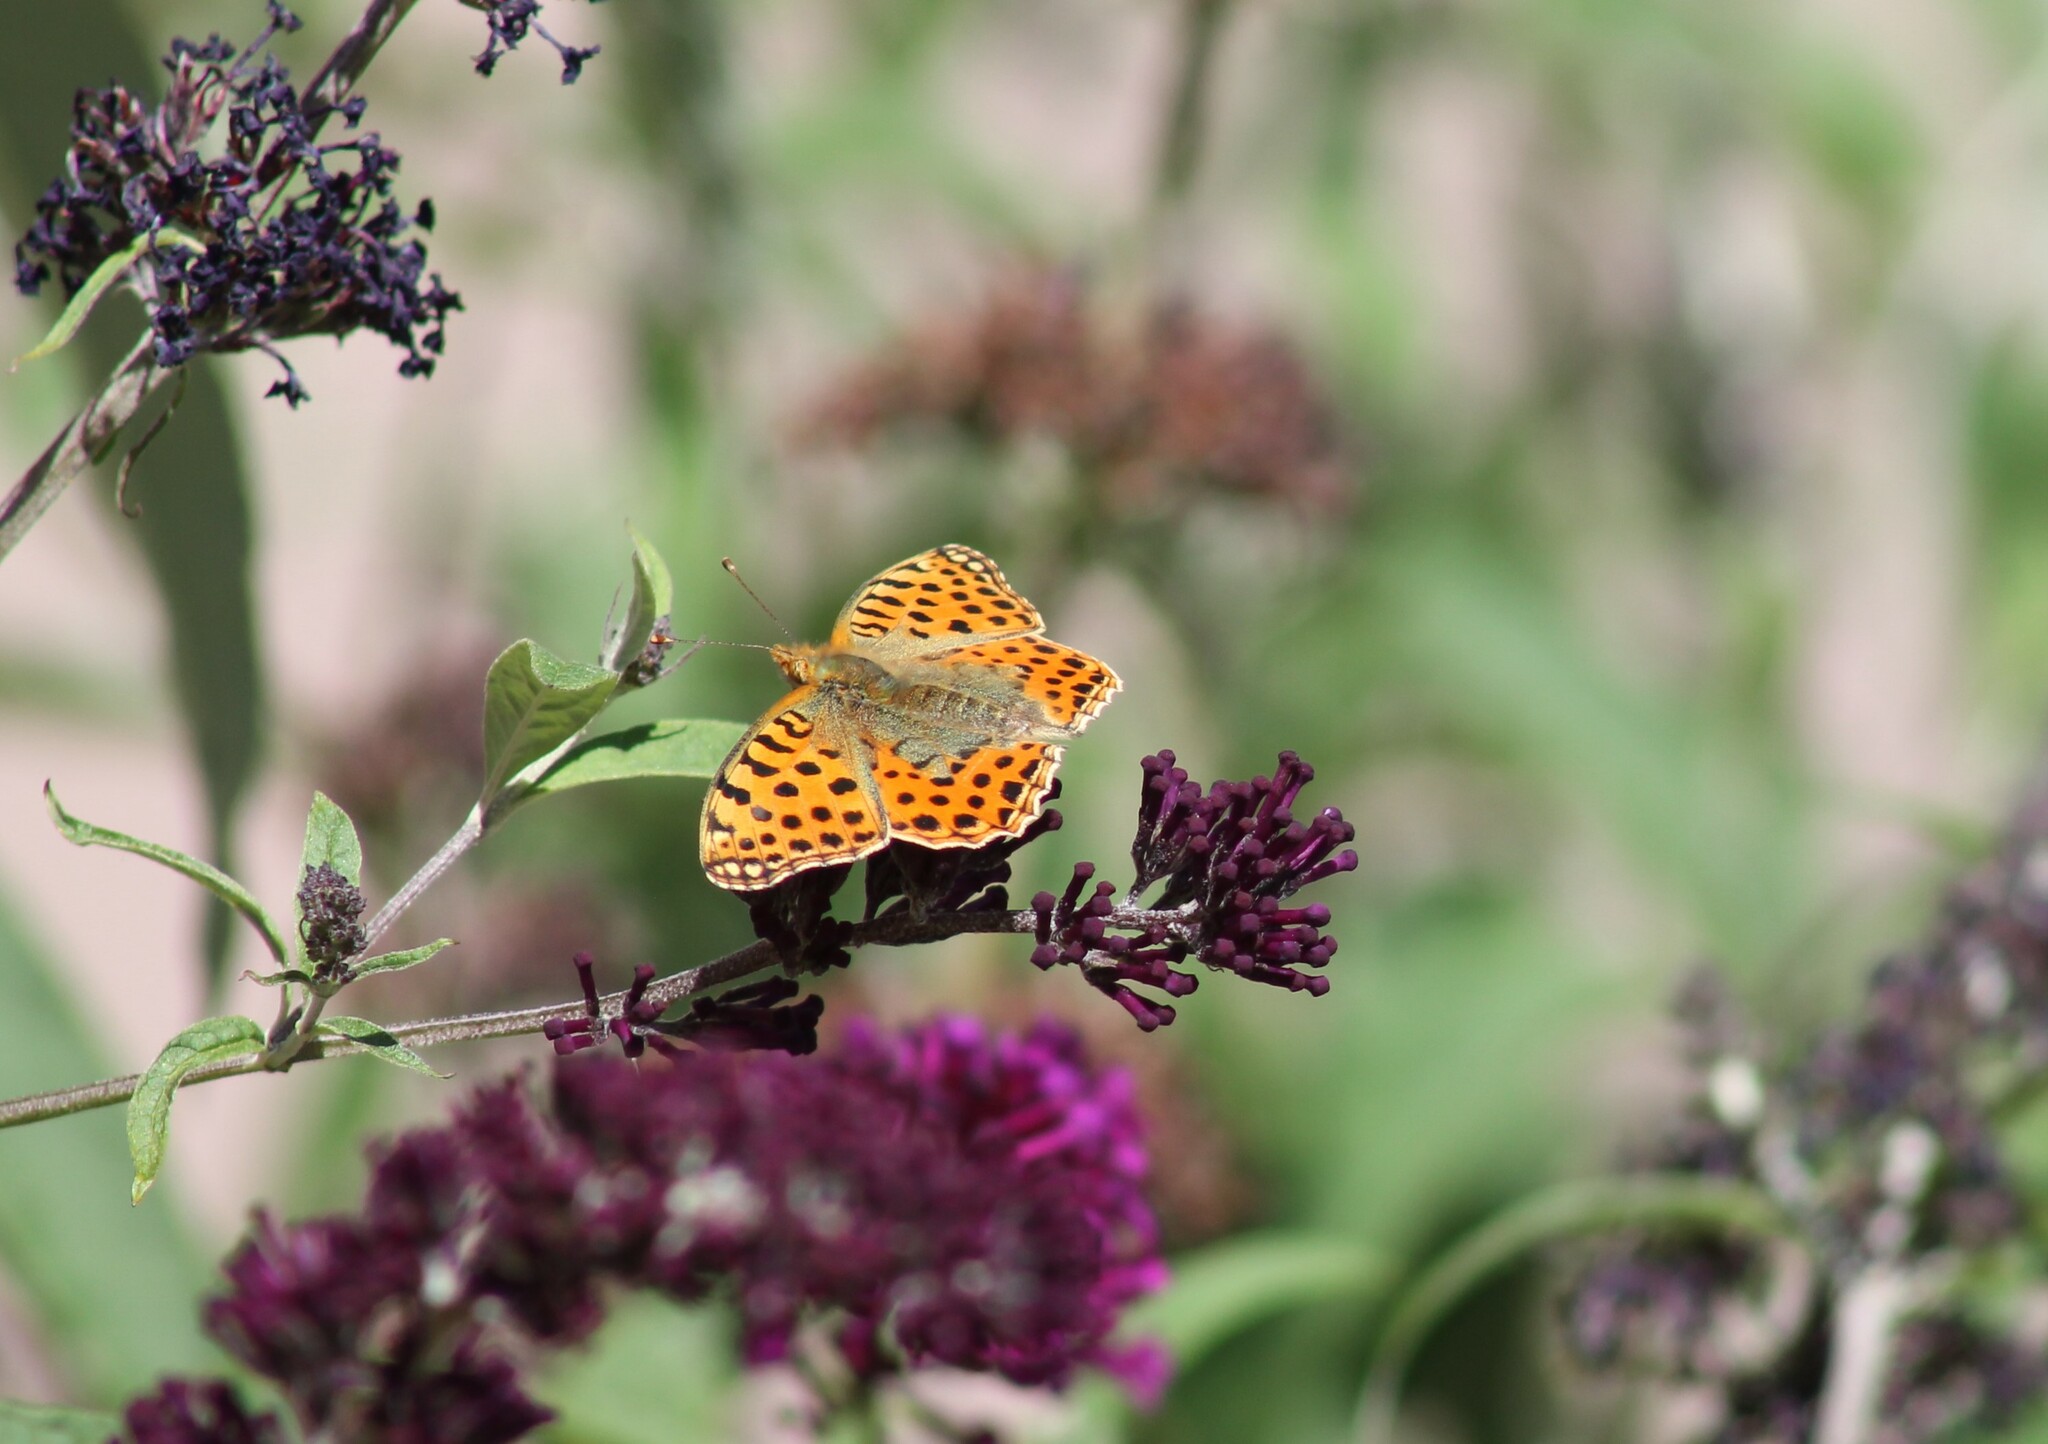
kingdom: Animalia
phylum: Arthropoda
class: Insecta
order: Lepidoptera
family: Nymphalidae
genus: Issoria
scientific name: Issoria lathonia
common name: Queen of spain fritillary
